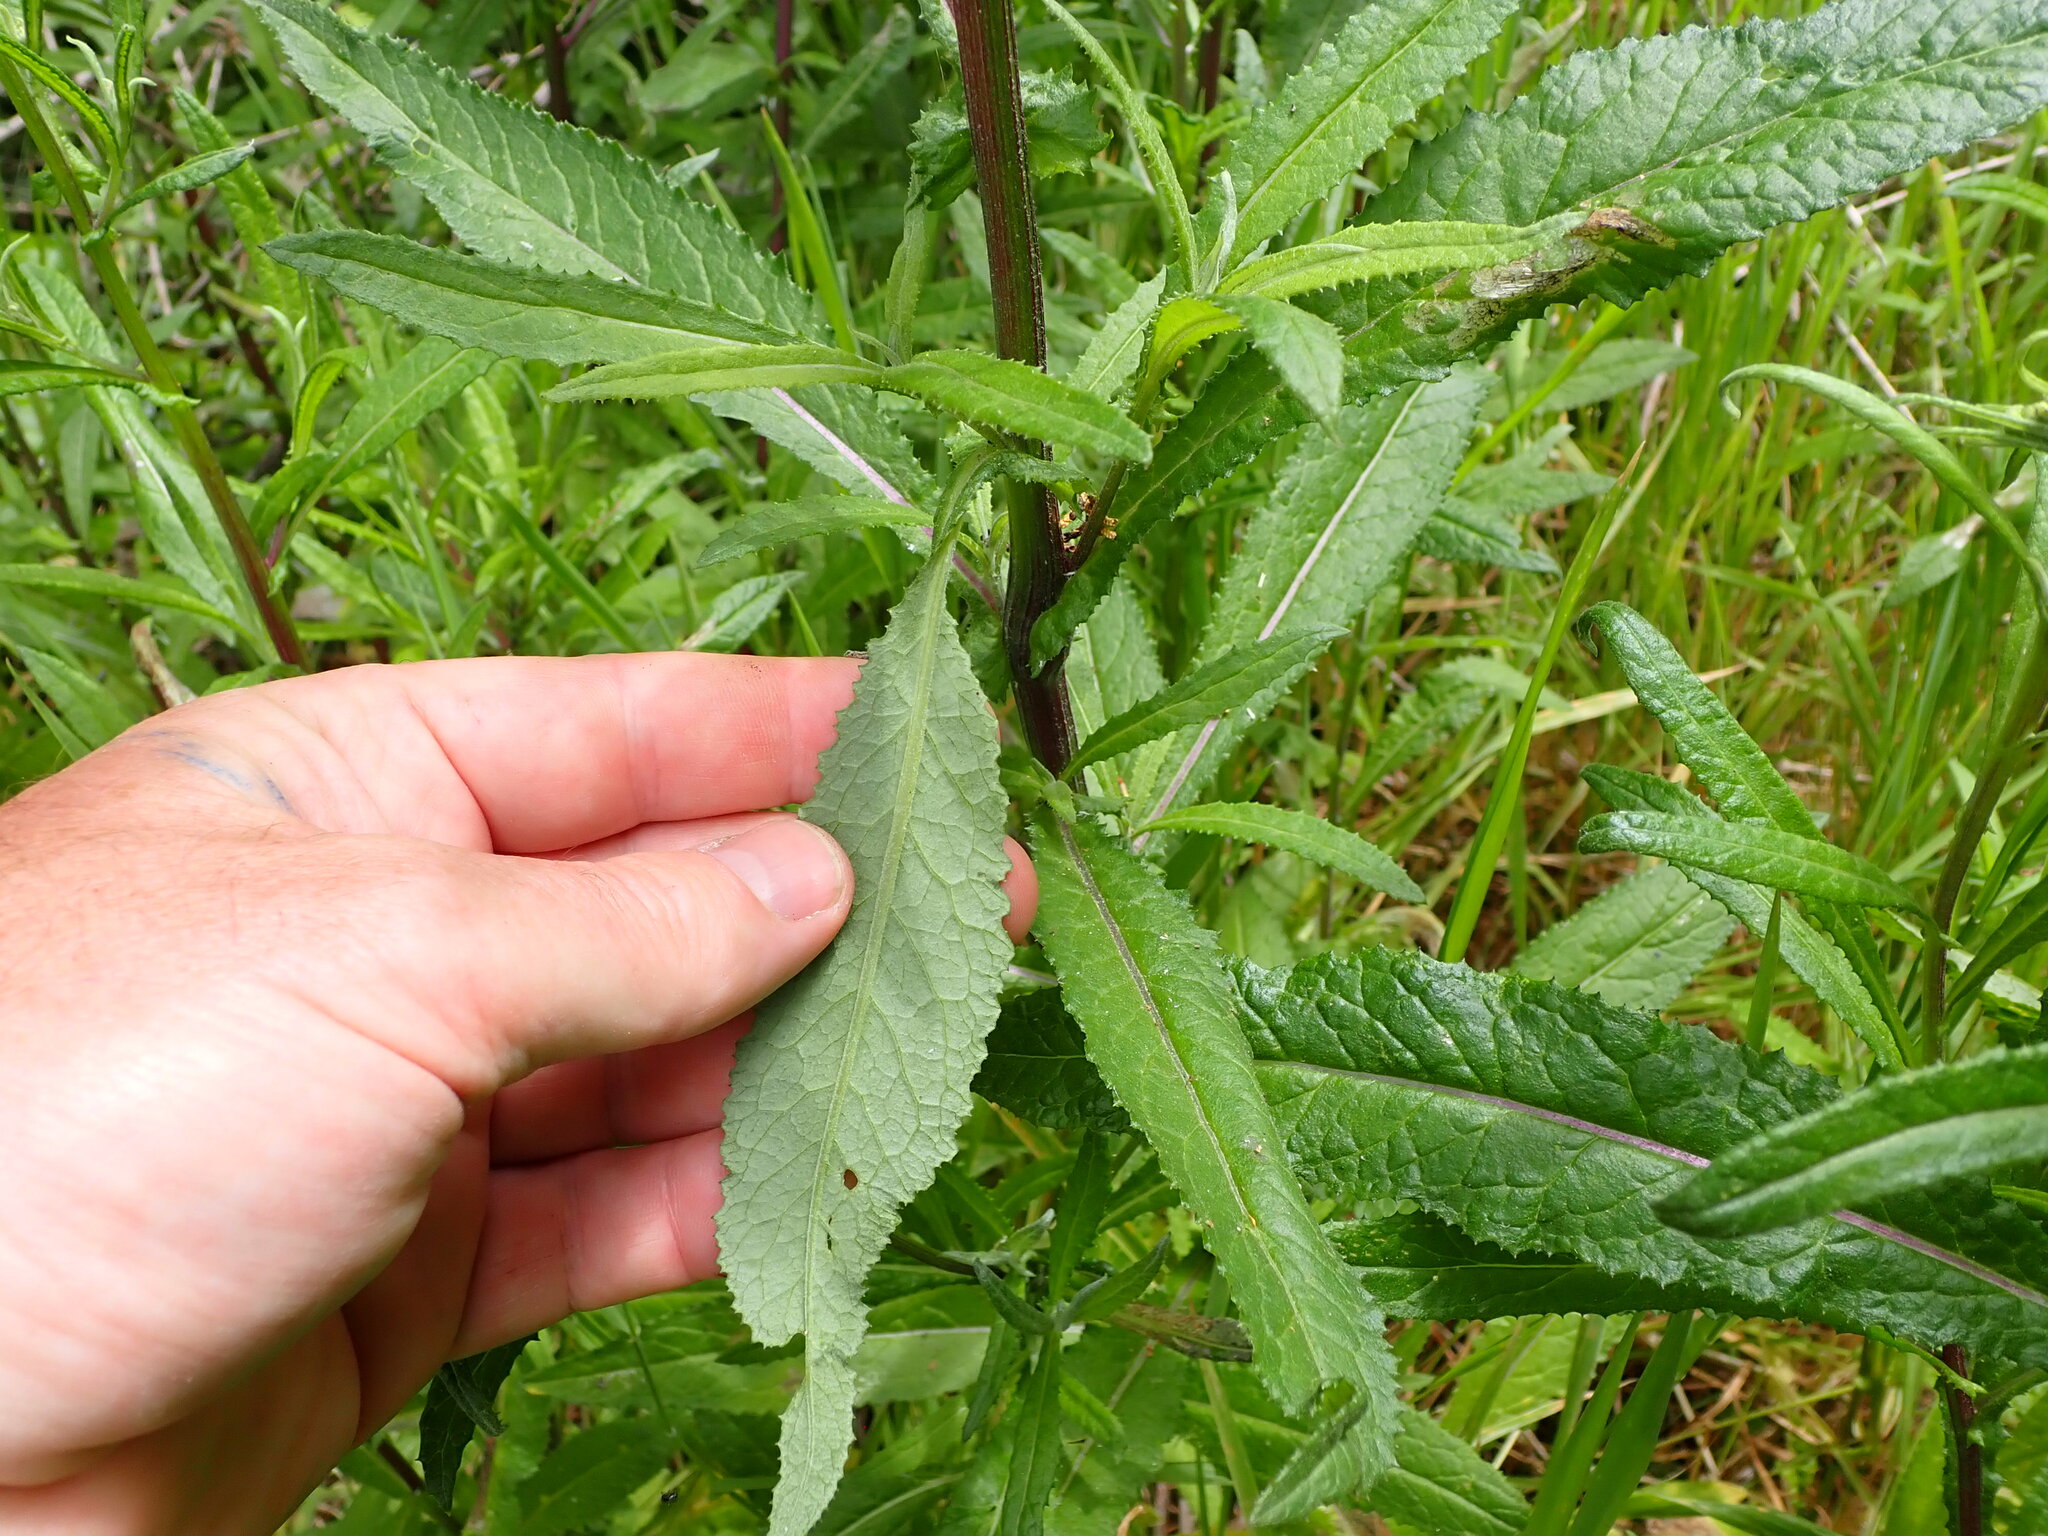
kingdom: Plantae
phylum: Tracheophyta
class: Magnoliopsida
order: Asterales
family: Asteraceae
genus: Senecio
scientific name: Senecio minimus
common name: Toothed fireweed
